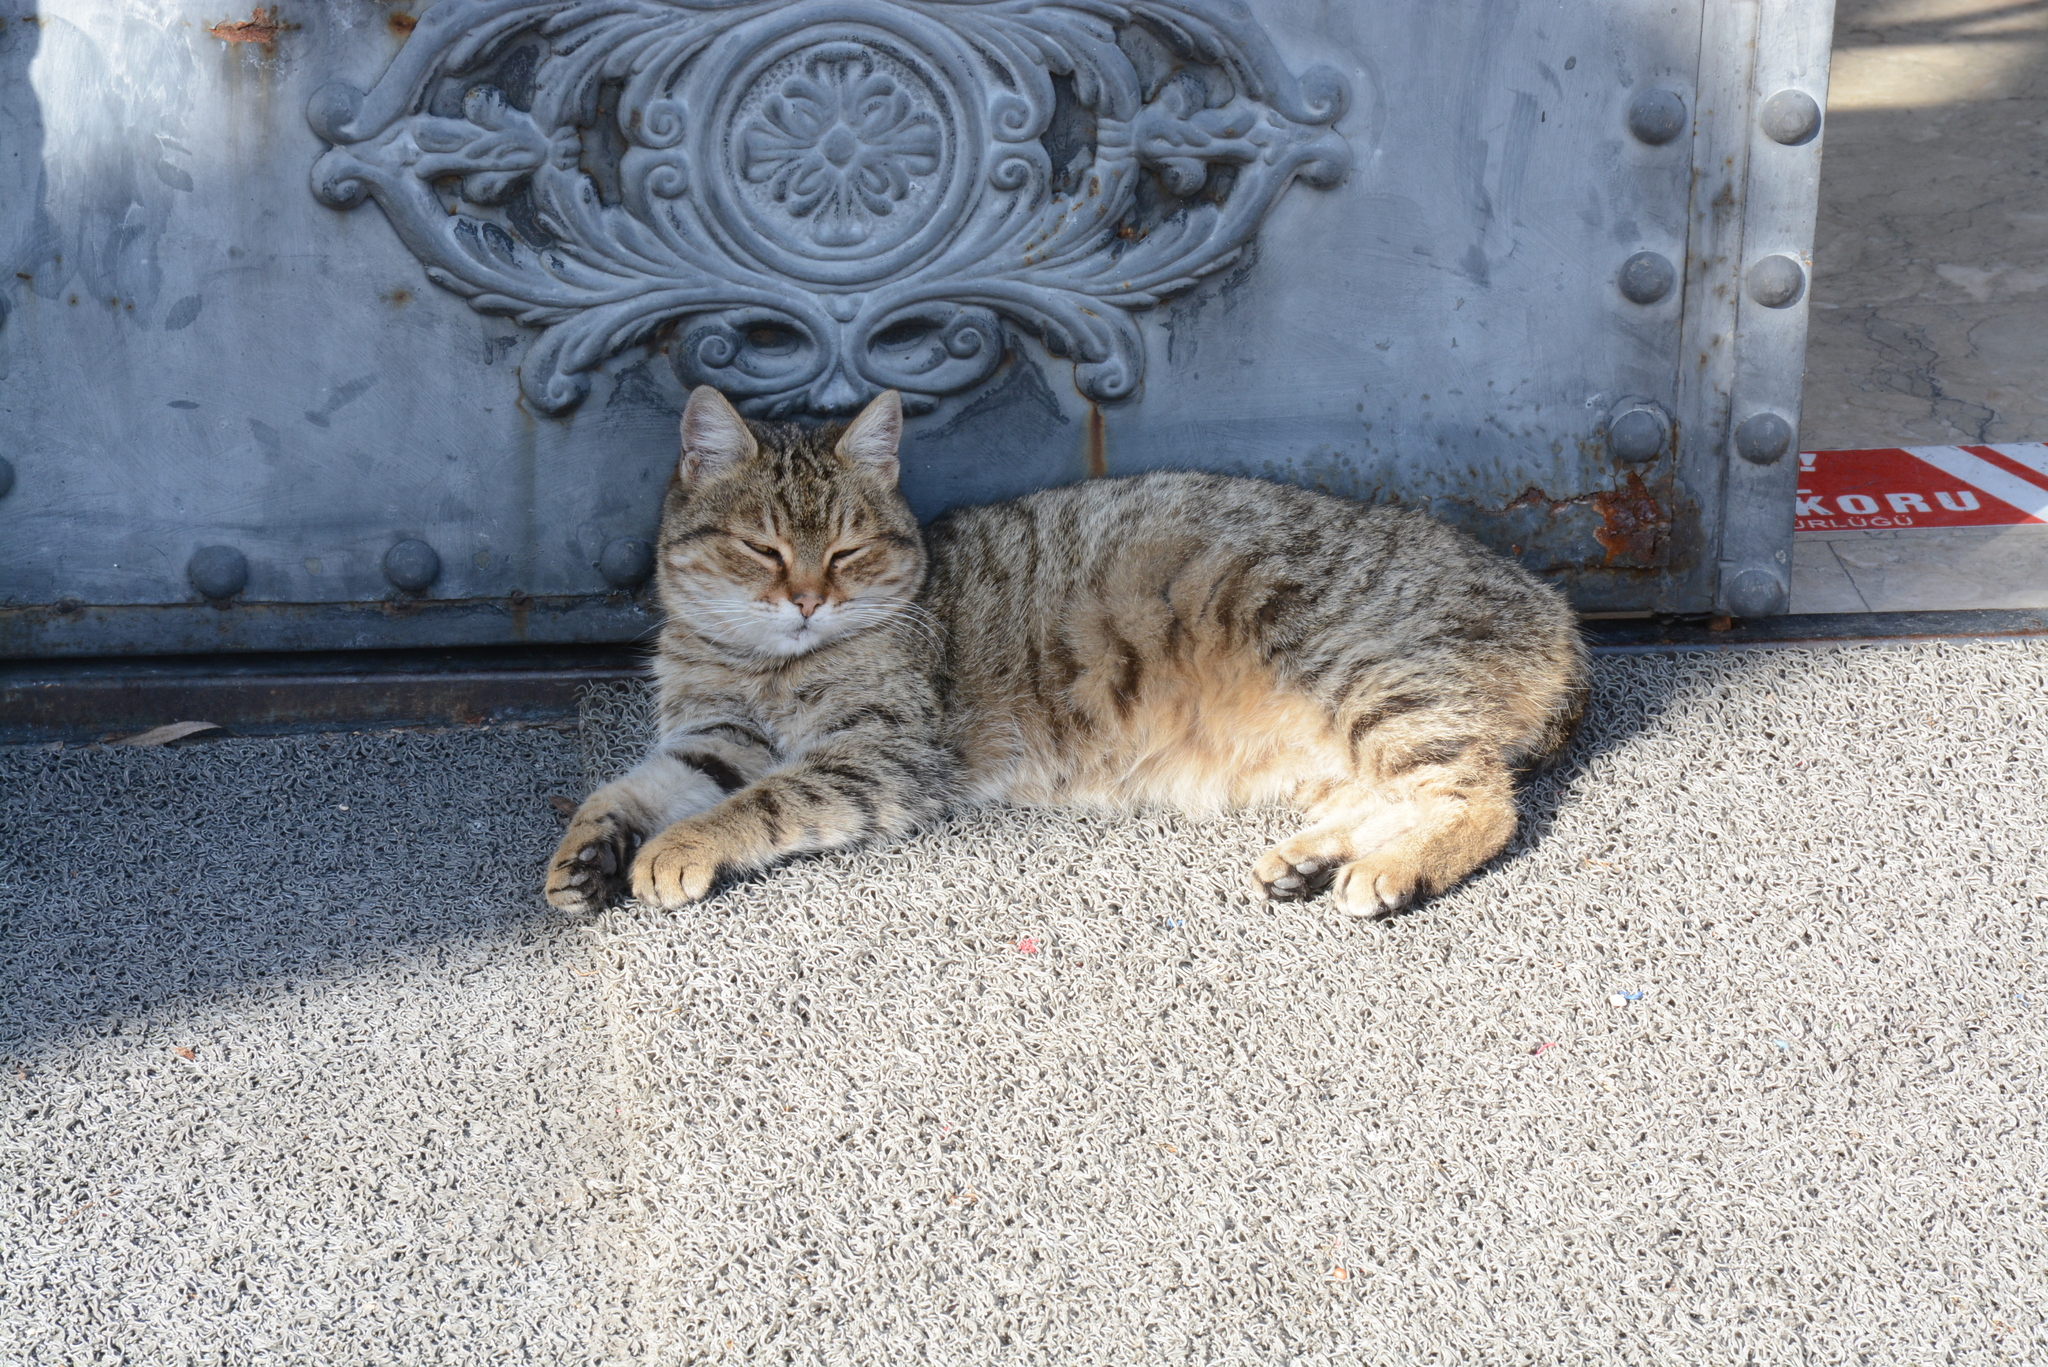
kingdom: Animalia
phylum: Chordata
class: Mammalia
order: Carnivora
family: Felidae
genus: Felis
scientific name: Felis catus
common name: Domestic cat
